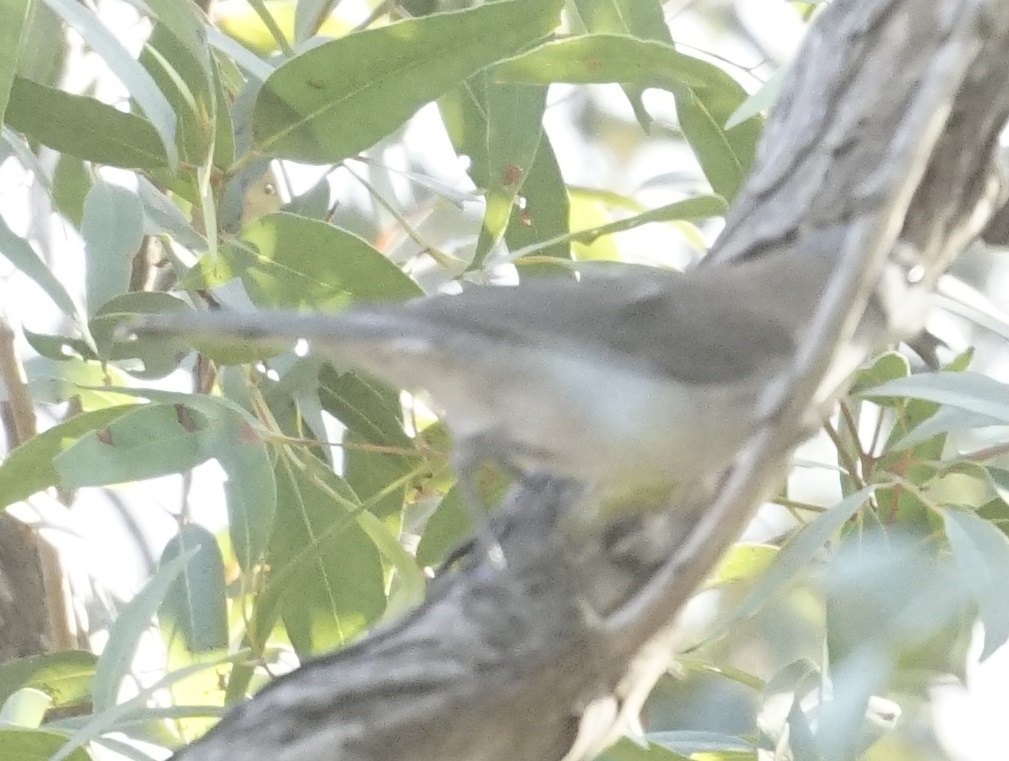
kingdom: Animalia
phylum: Chordata
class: Aves
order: Passeriformes
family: Pachycephalidae
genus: Colluricincla
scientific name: Colluricincla harmonica
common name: Grey shrikethrush
